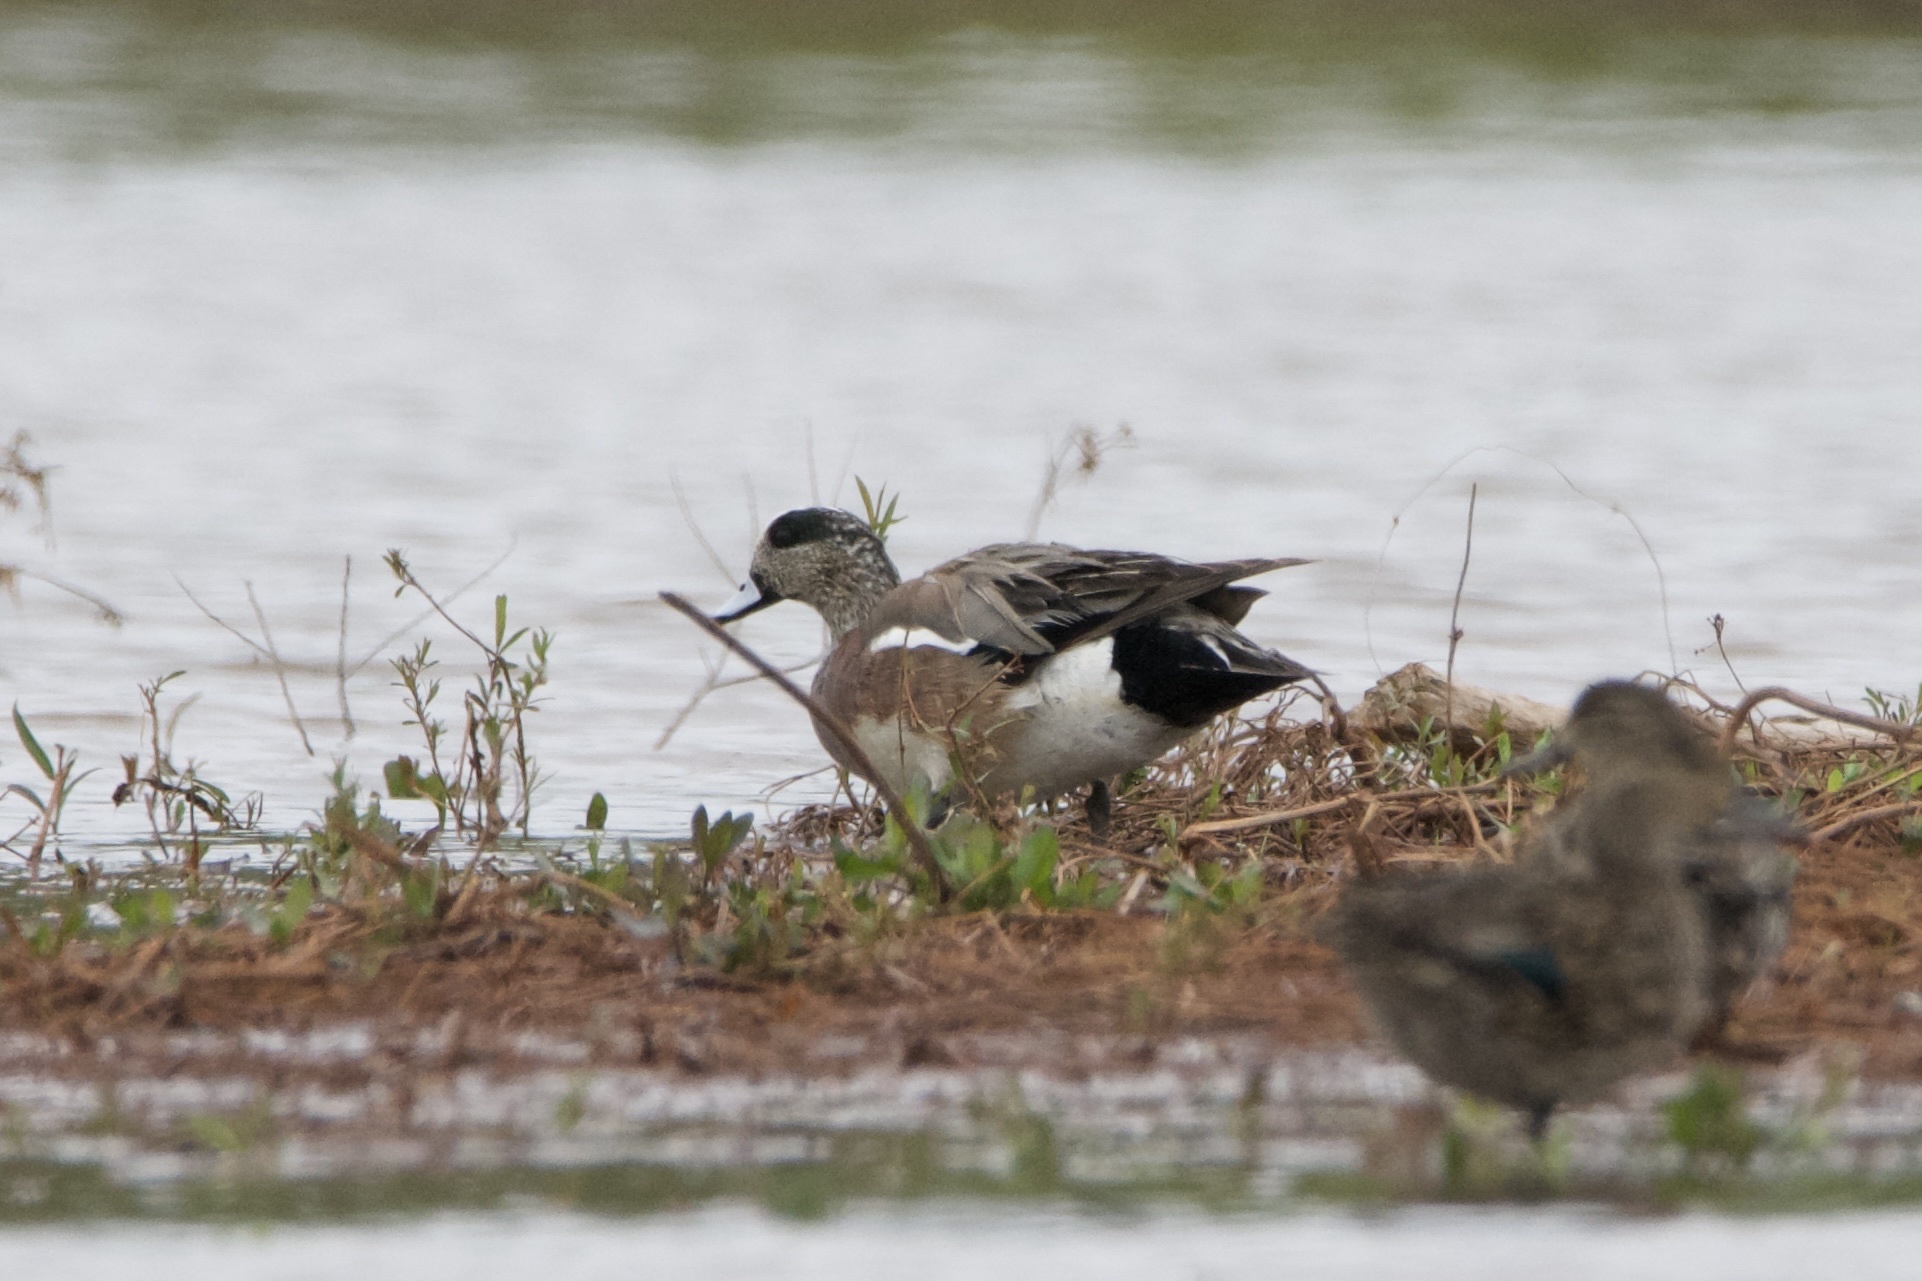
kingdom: Animalia
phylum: Chordata
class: Aves
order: Anseriformes
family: Anatidae
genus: Mareca
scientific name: Mareca americana
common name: American wigeon
